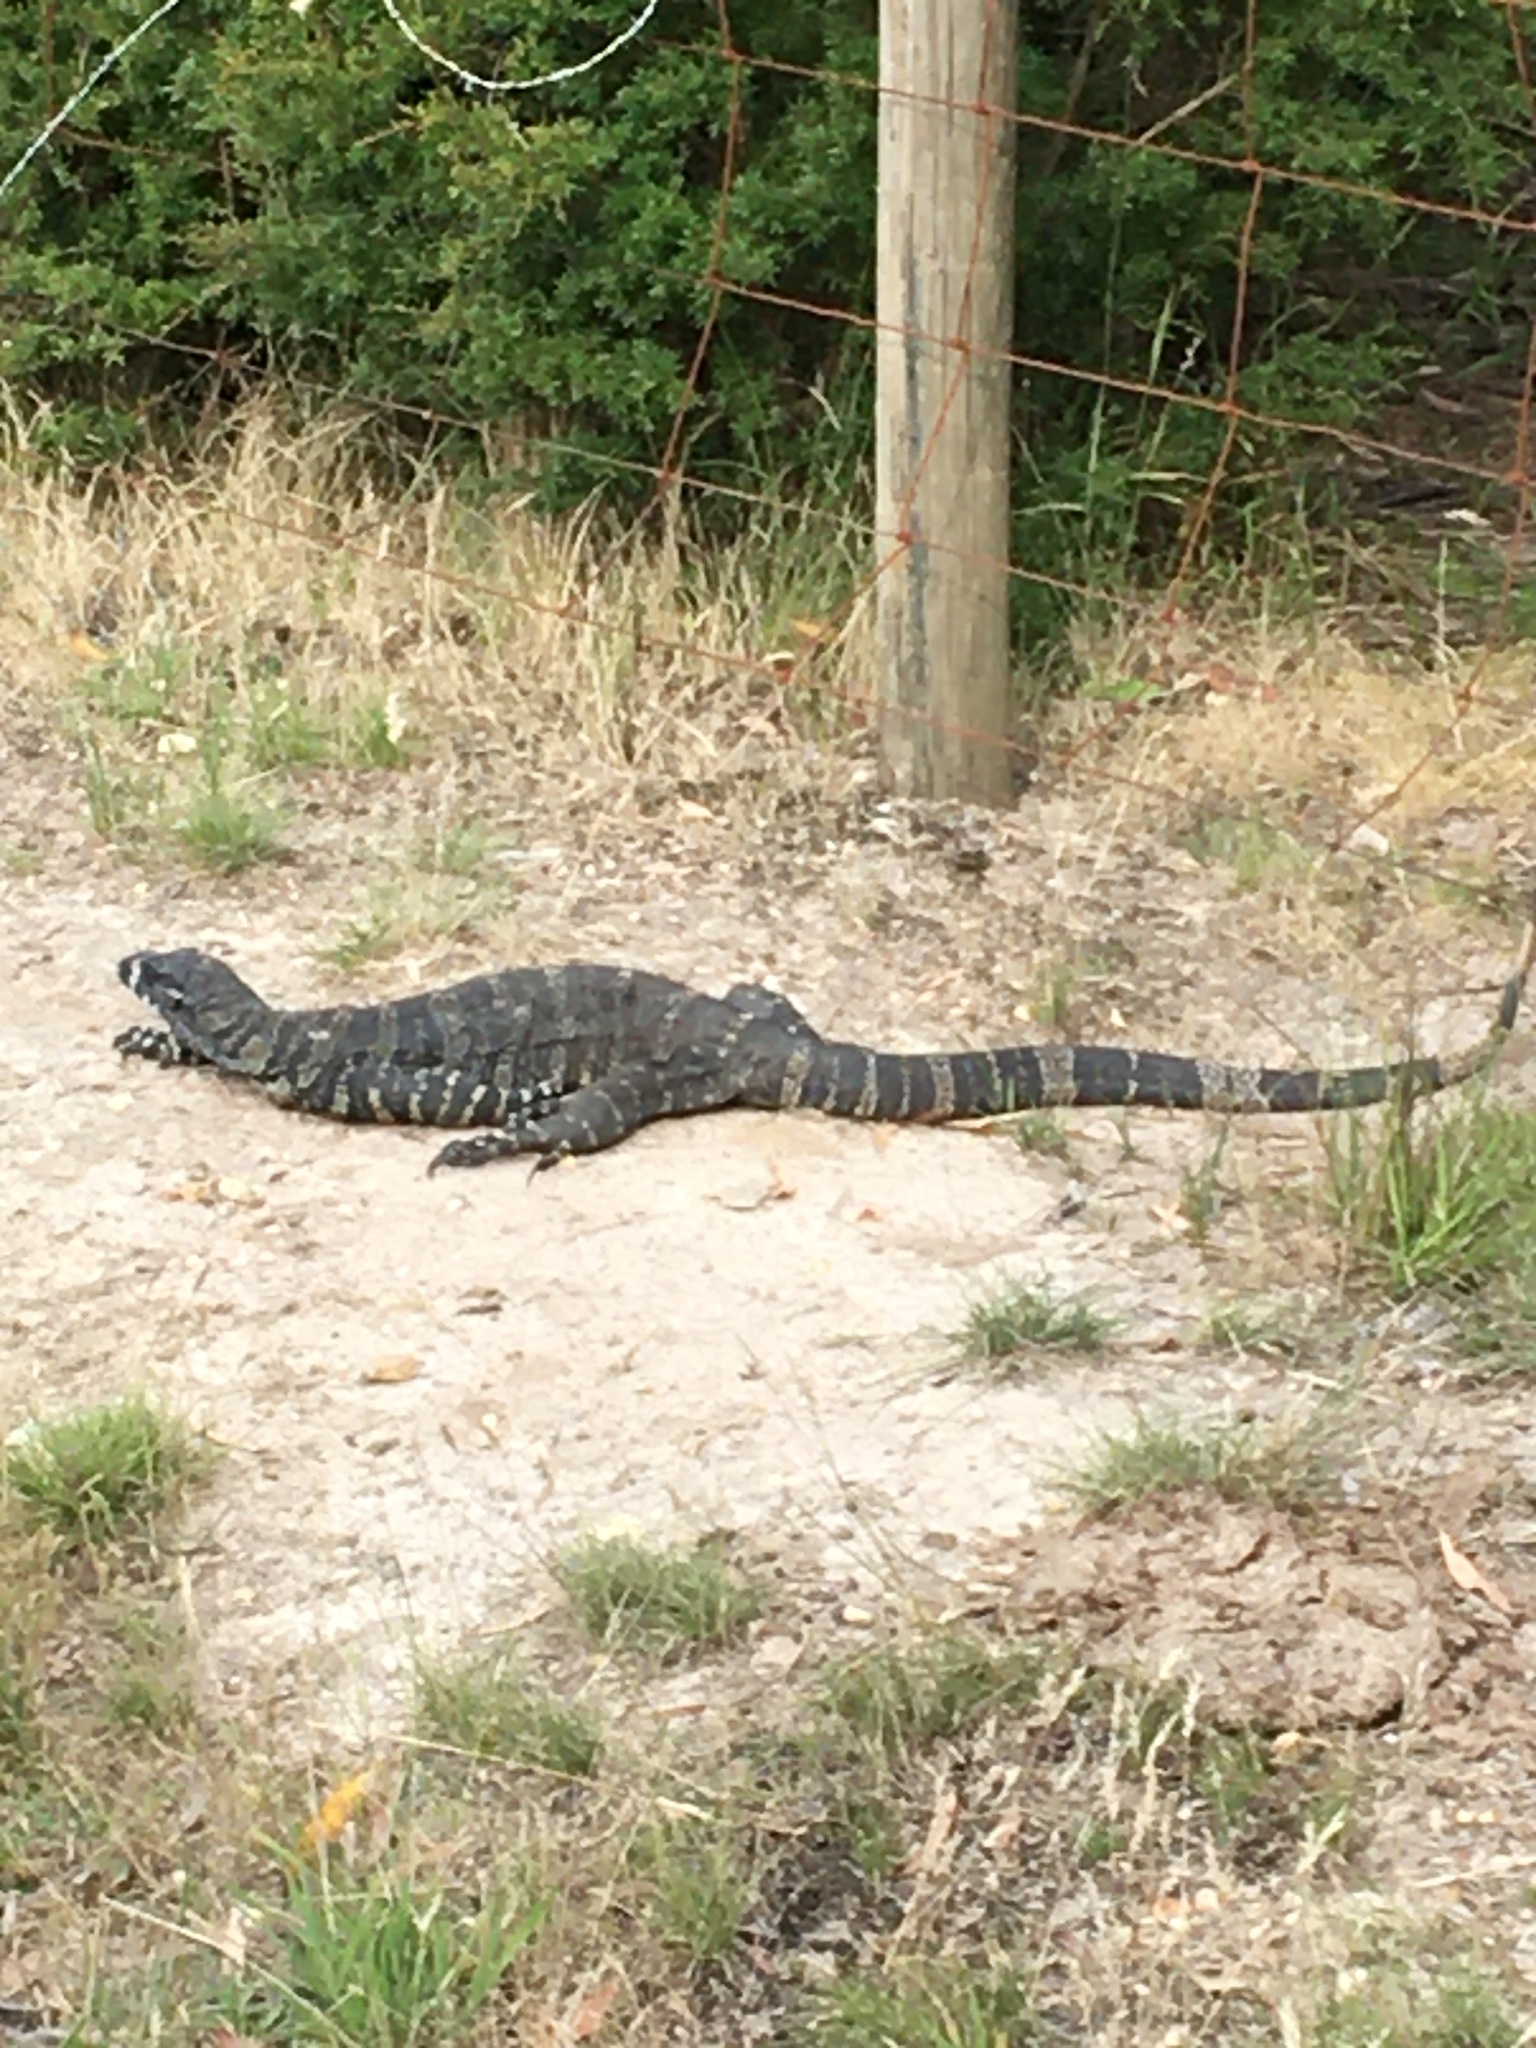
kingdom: Animalia
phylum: Chordata
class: Squamata
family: Varanidae
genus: Varanus
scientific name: Varanus varius
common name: Lace monitor
